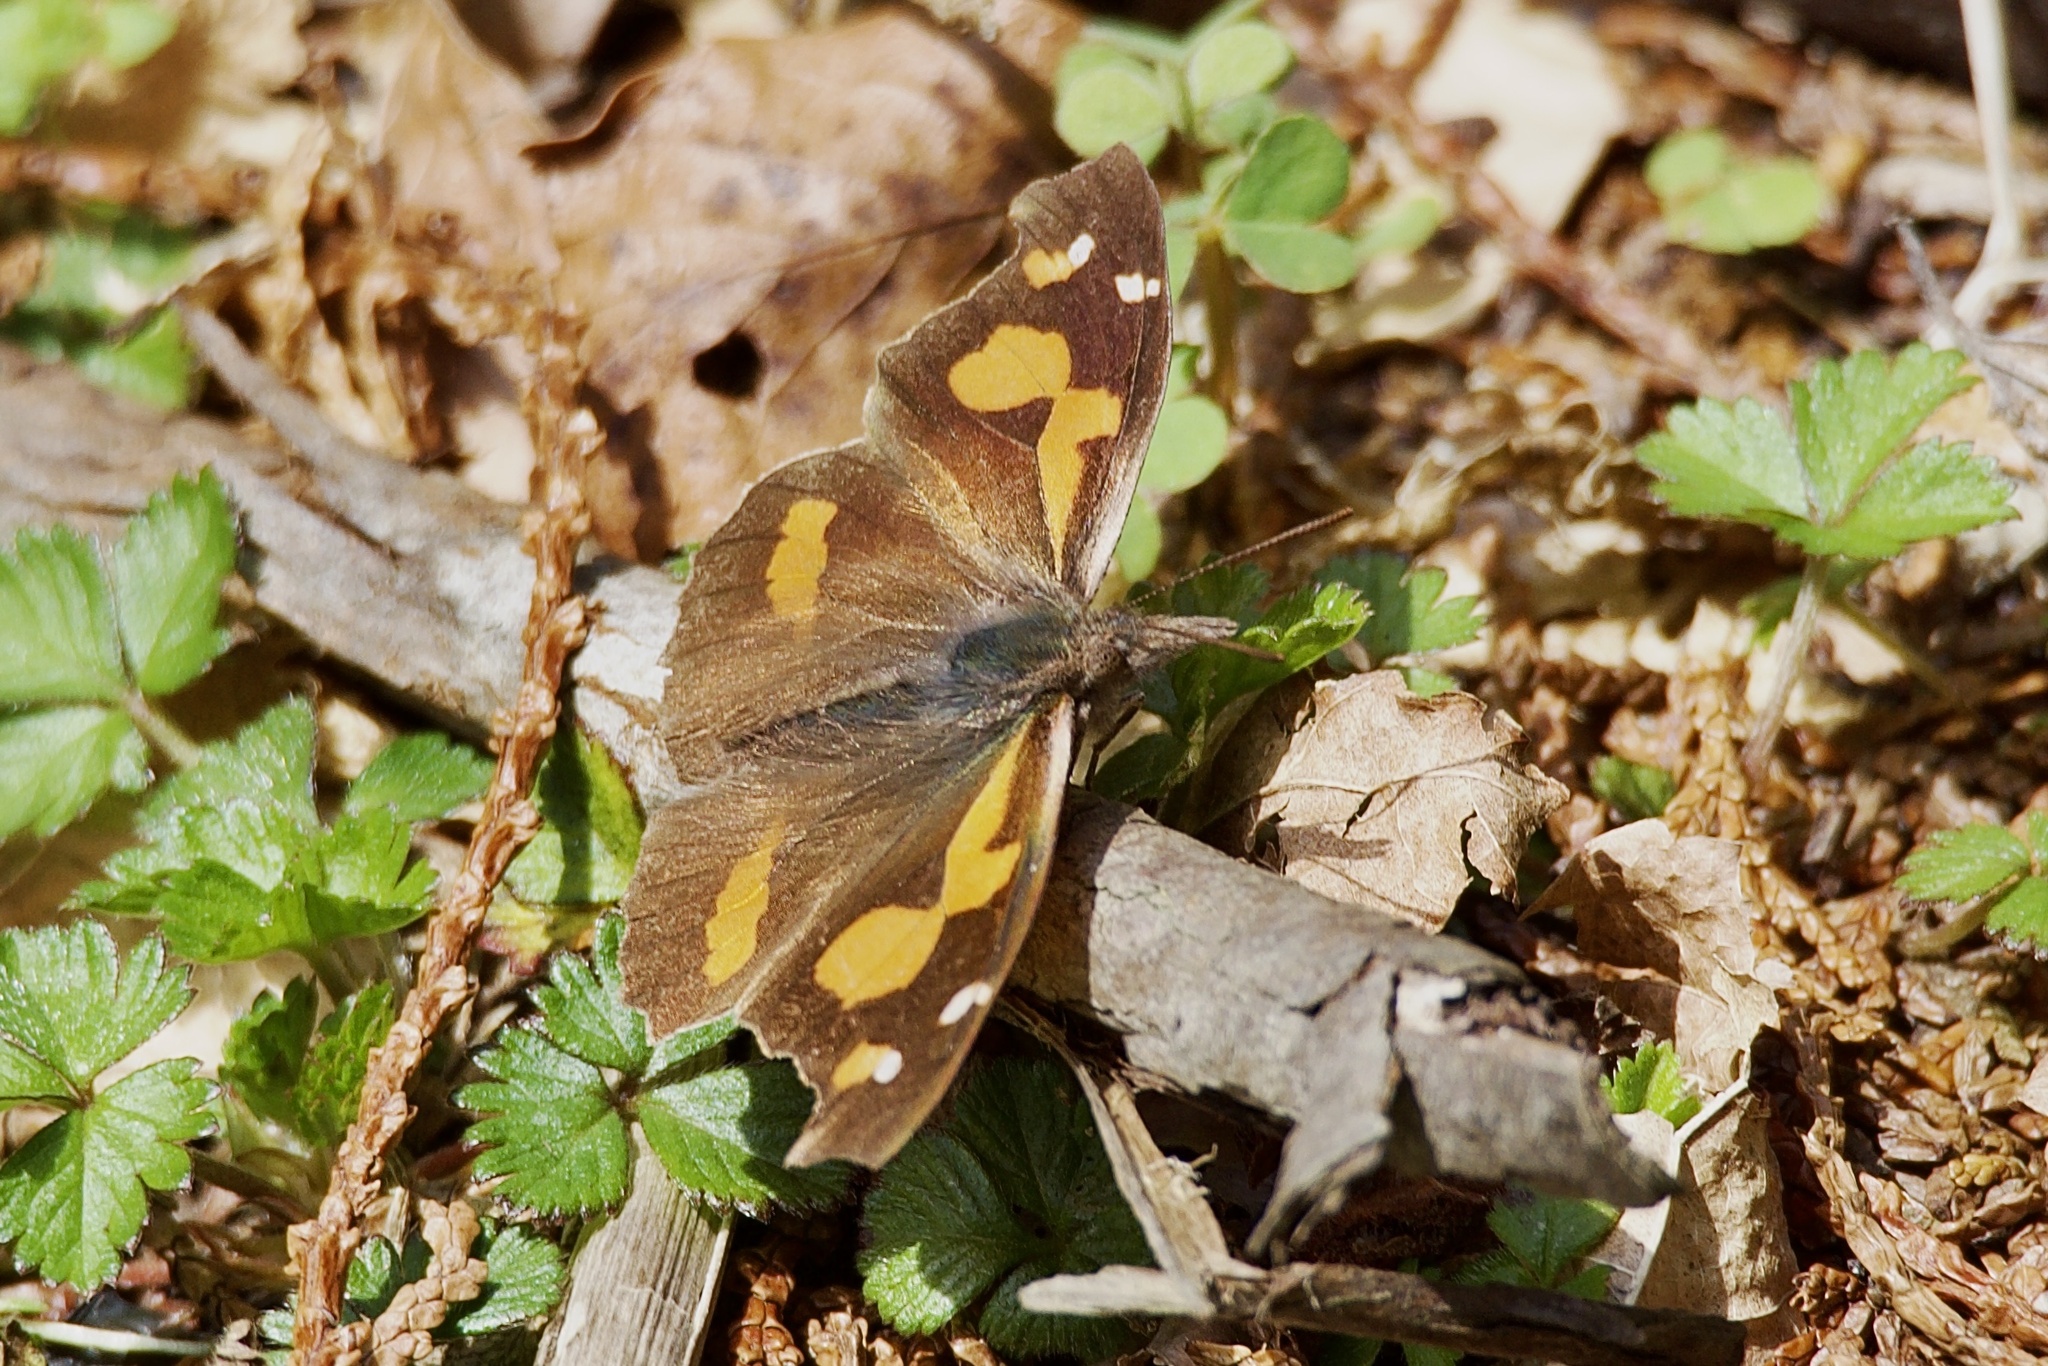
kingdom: Animalia
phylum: Arthropoda
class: Insecta
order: Lepidoptera
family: Nymphalidae
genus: Libythea
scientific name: Libythea lepita
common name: Common beak
